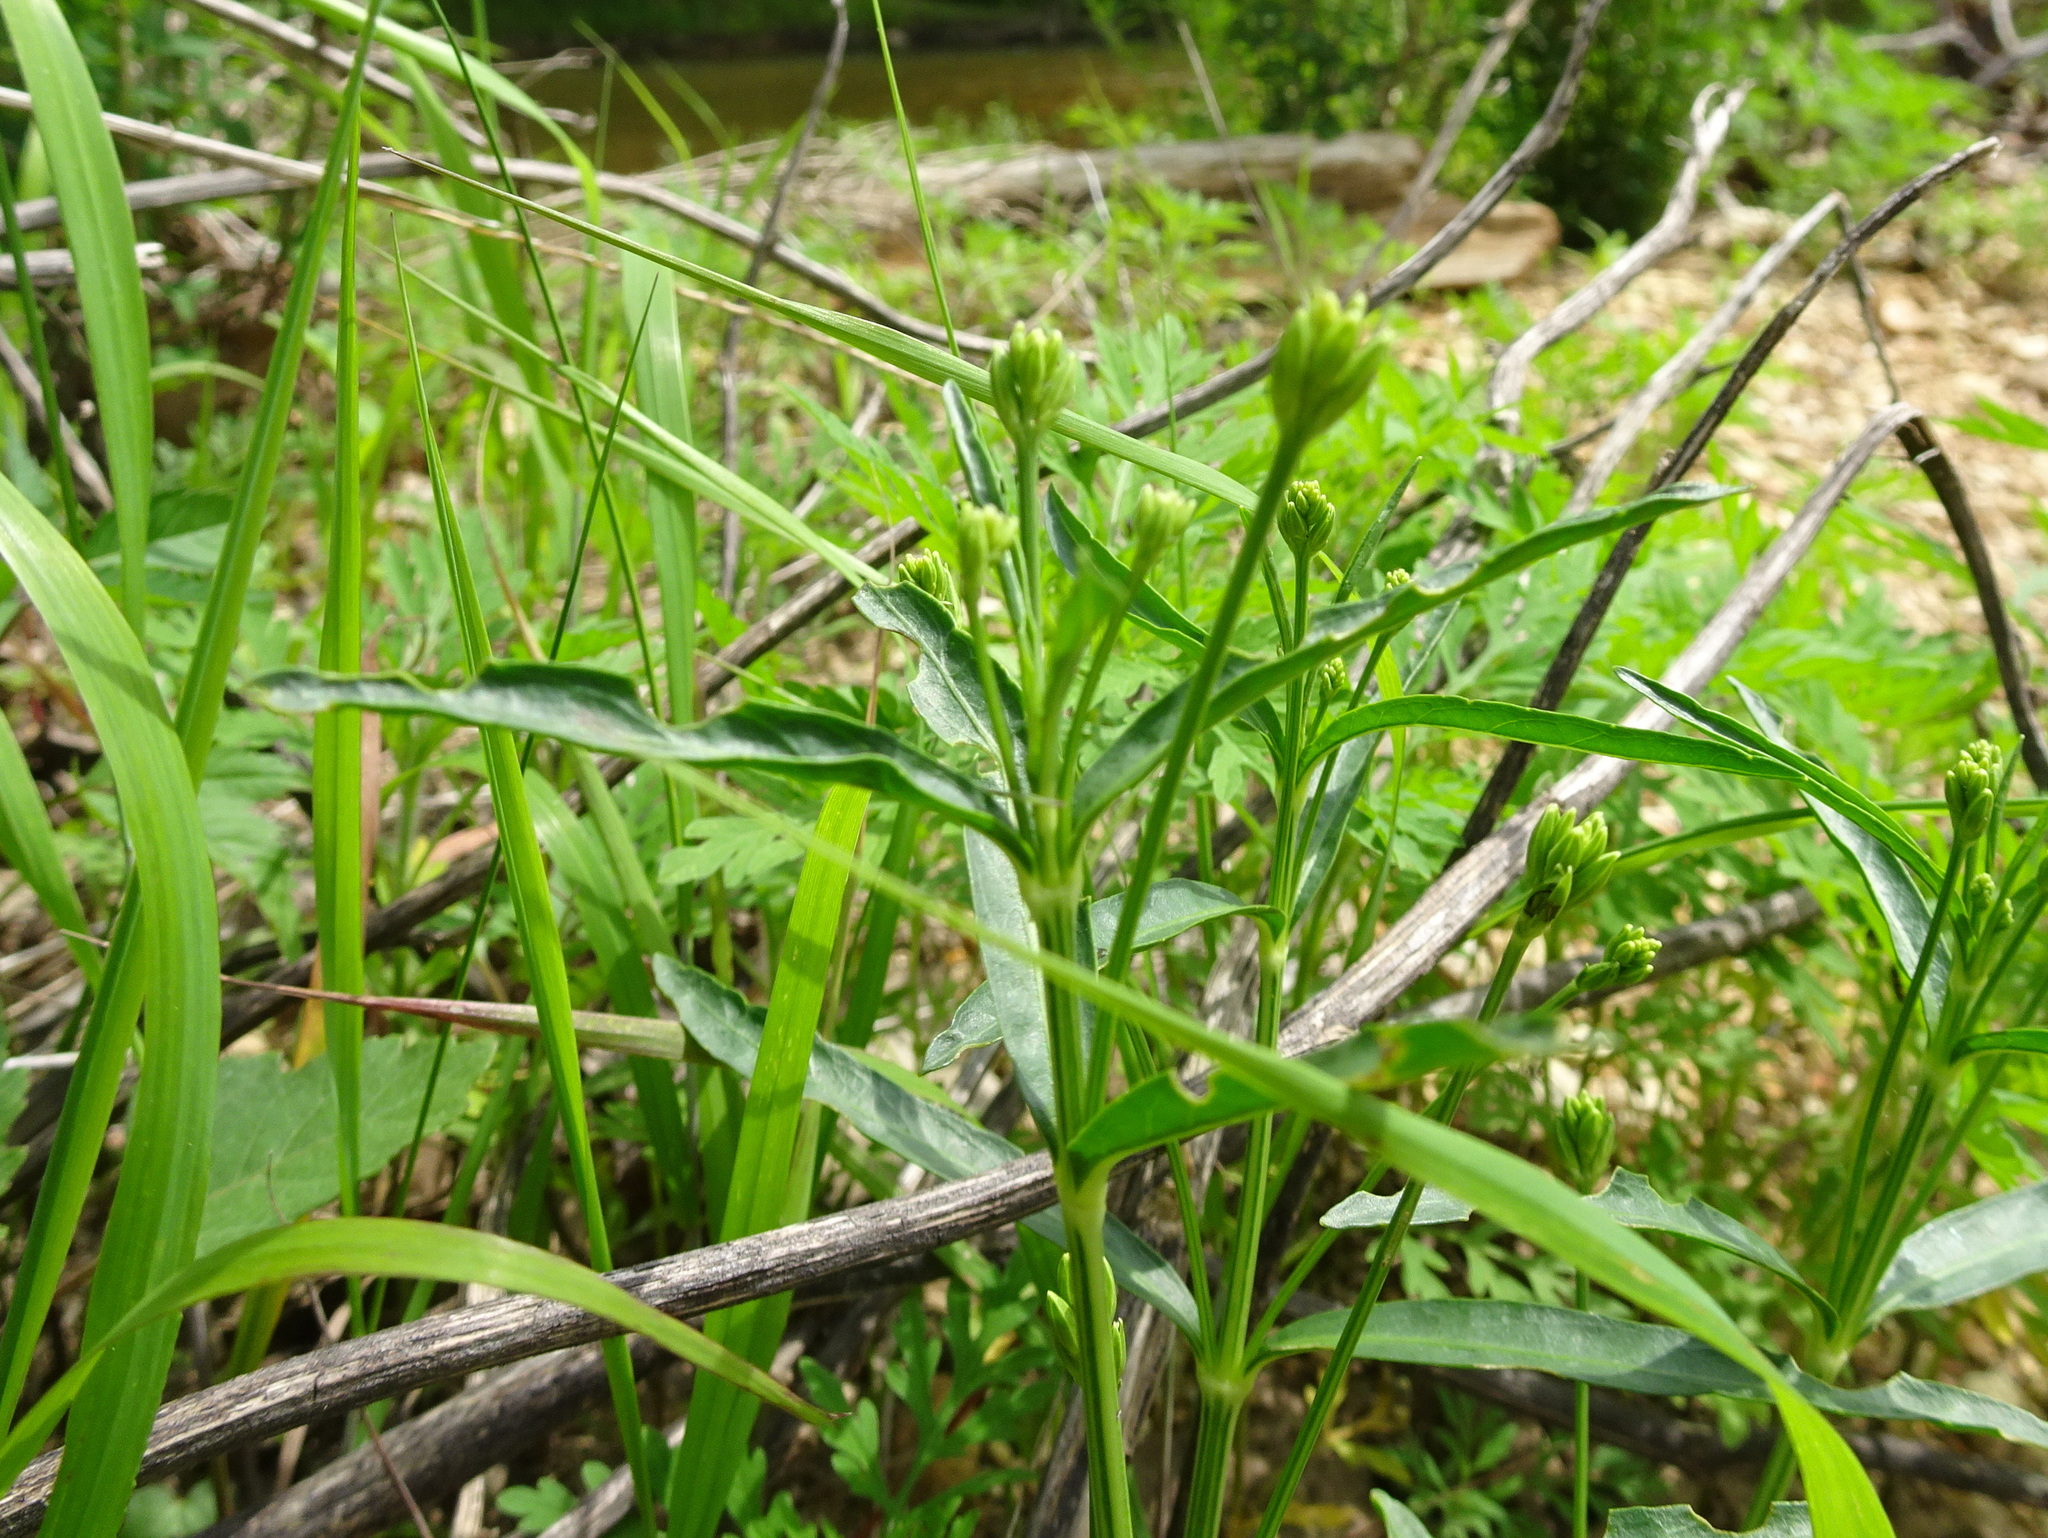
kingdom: Plantae
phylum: Tracheophyta
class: Magnoliopsida
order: Lamiales
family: Acanthaceae
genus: Dianthera
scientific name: Dianthera americana
